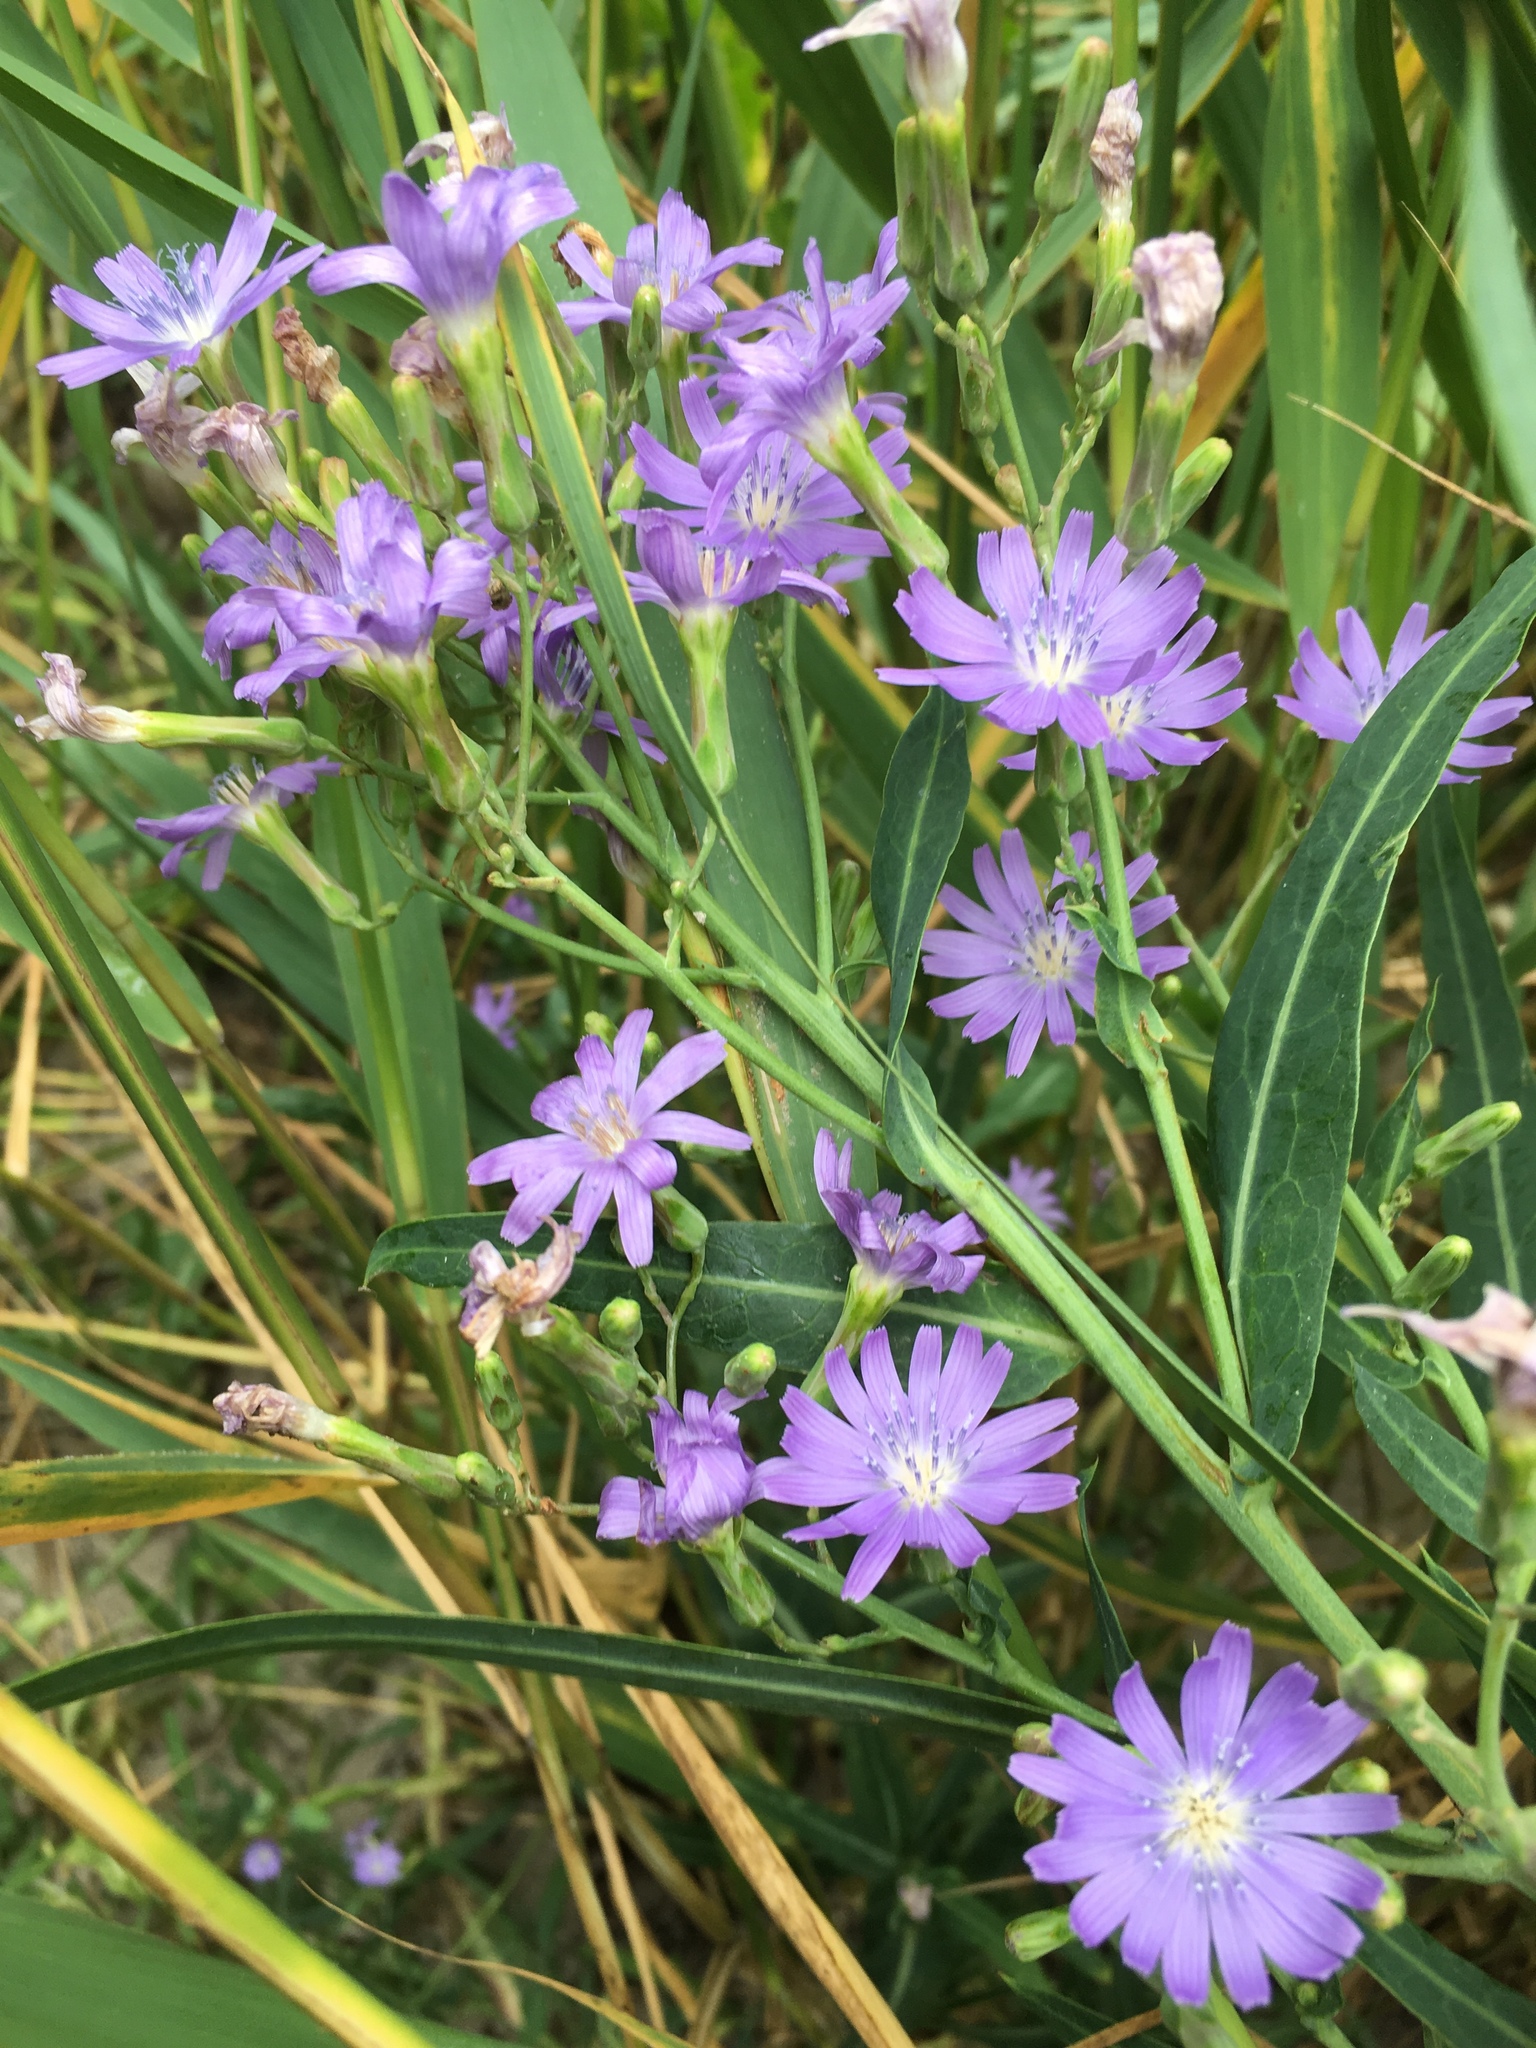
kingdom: Plantae
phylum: Tracheophyta
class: Magnoliopsida
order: Asterales
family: Asteraceae
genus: Lactuca
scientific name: Lactuca tatarica
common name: Blue lettuce
